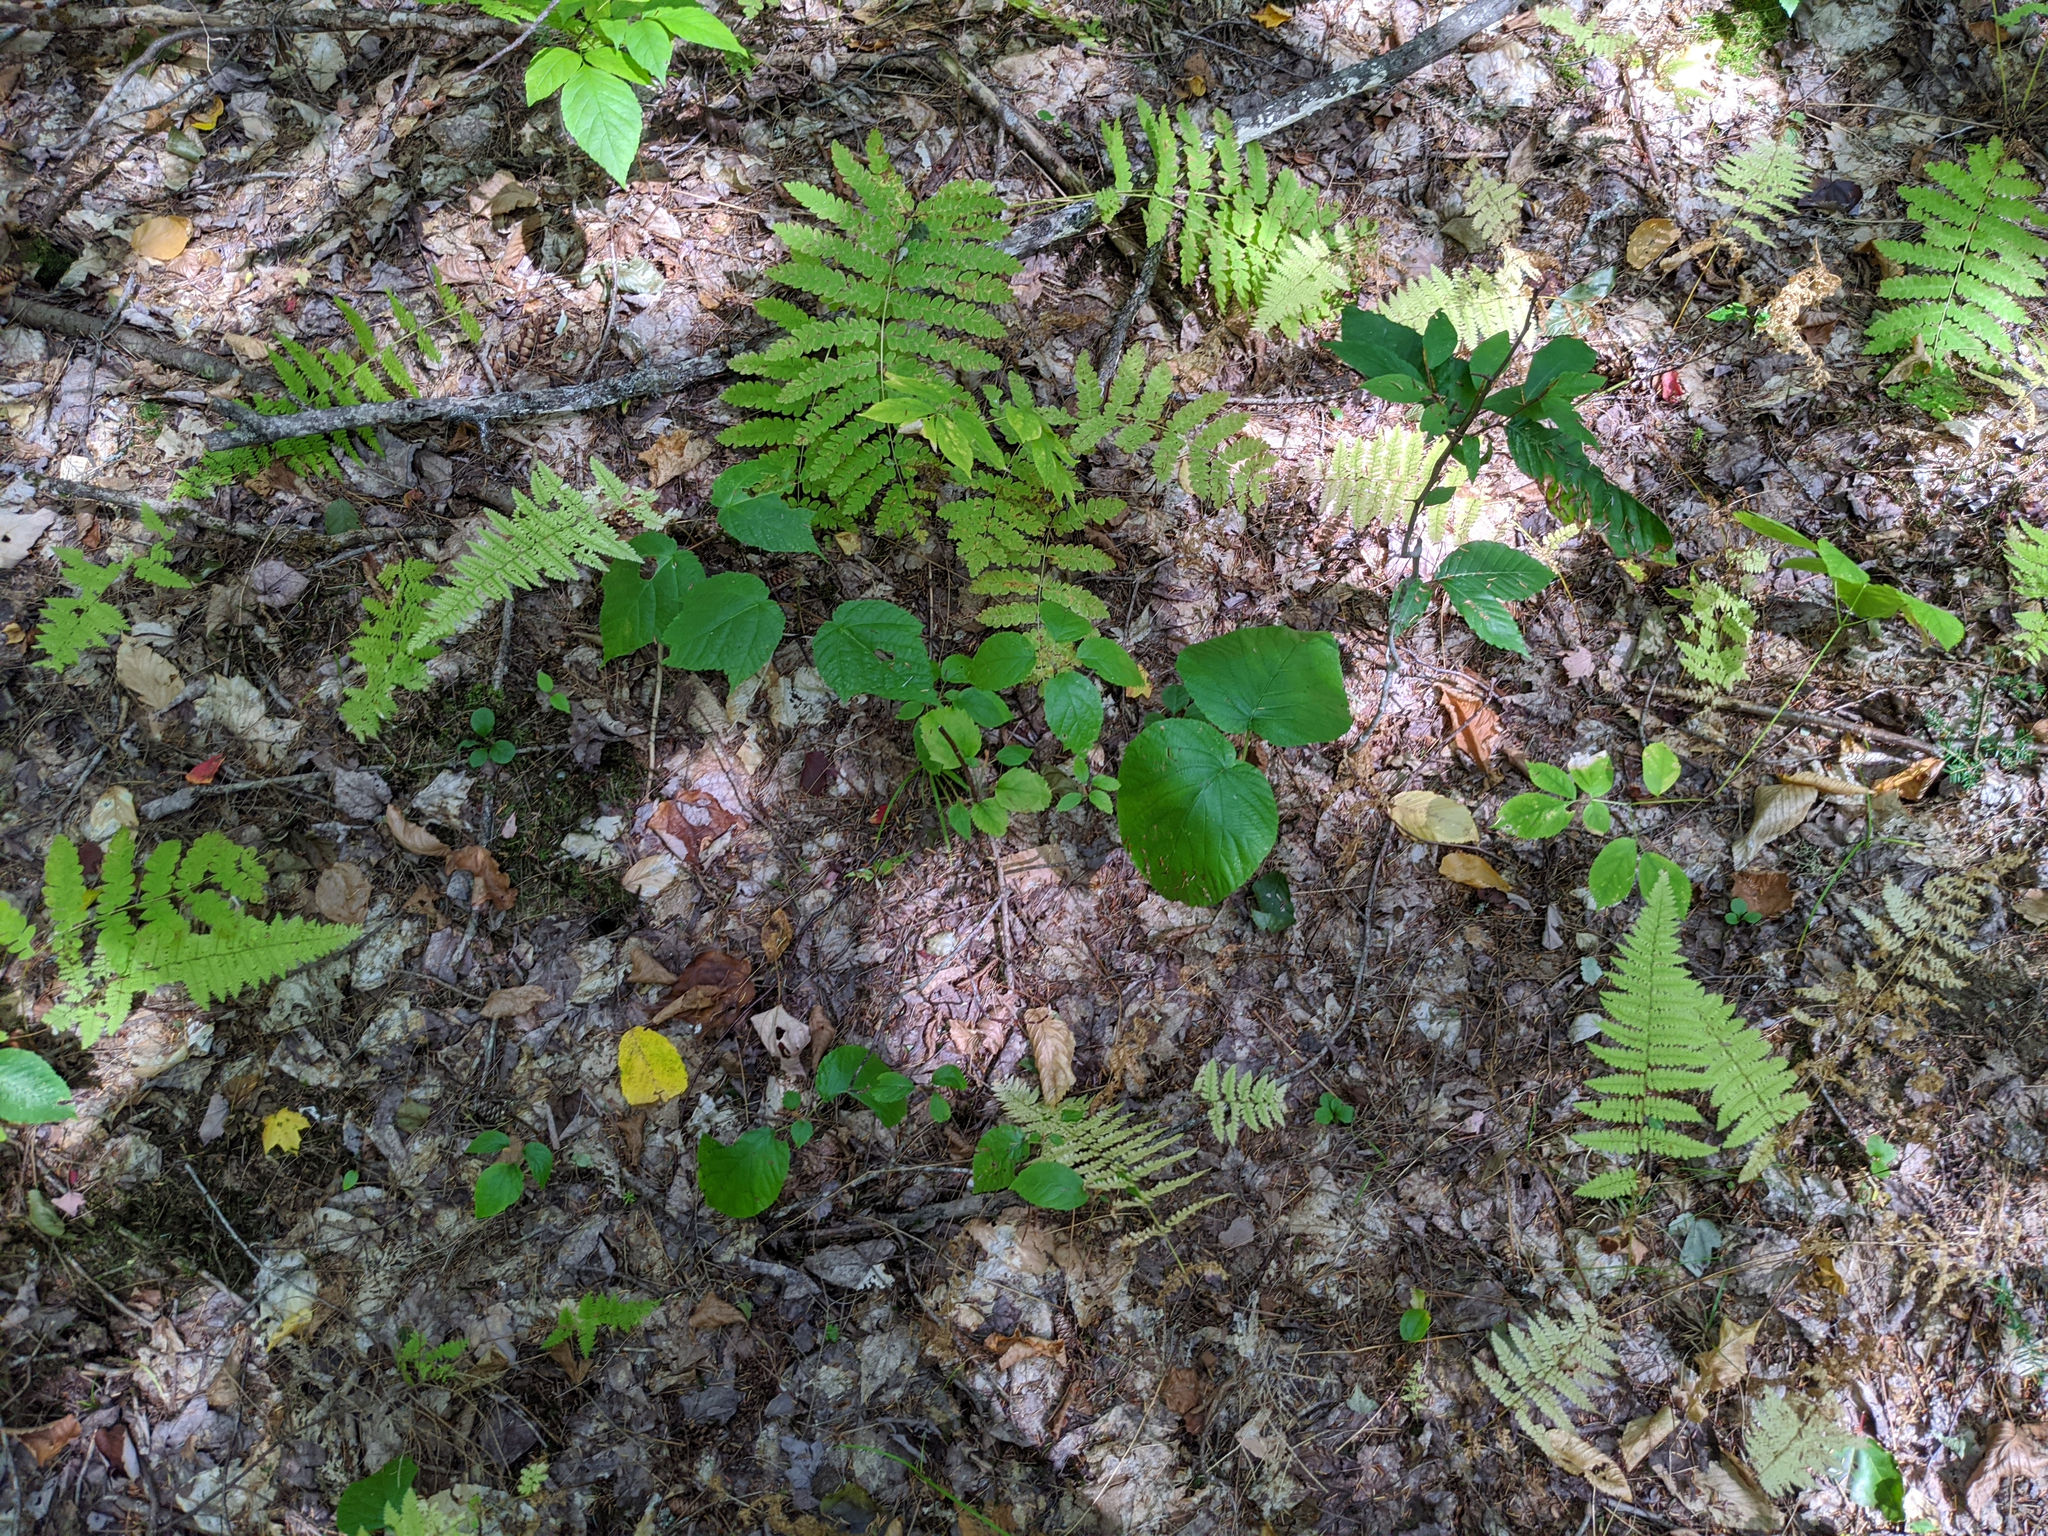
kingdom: Plantae
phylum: Tracheophyta
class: Magnoliopsida
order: Dipsacales
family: Viburnaceae
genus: Viburnum
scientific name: Viburnum lantanoides
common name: Hobblebush
